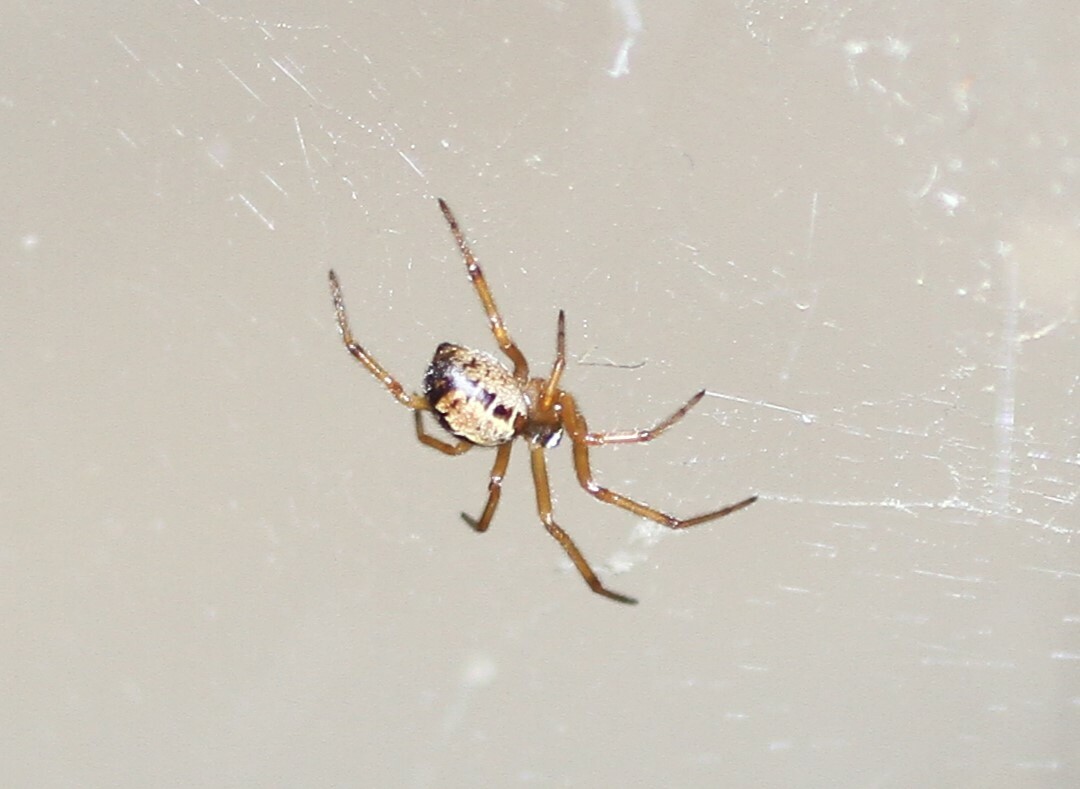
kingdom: Animalia
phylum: Arthropoda
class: Arachnida
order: Araneae
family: Theridiidae
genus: Steatoda
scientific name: Steatoda nobilis
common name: Cobweb weaver
